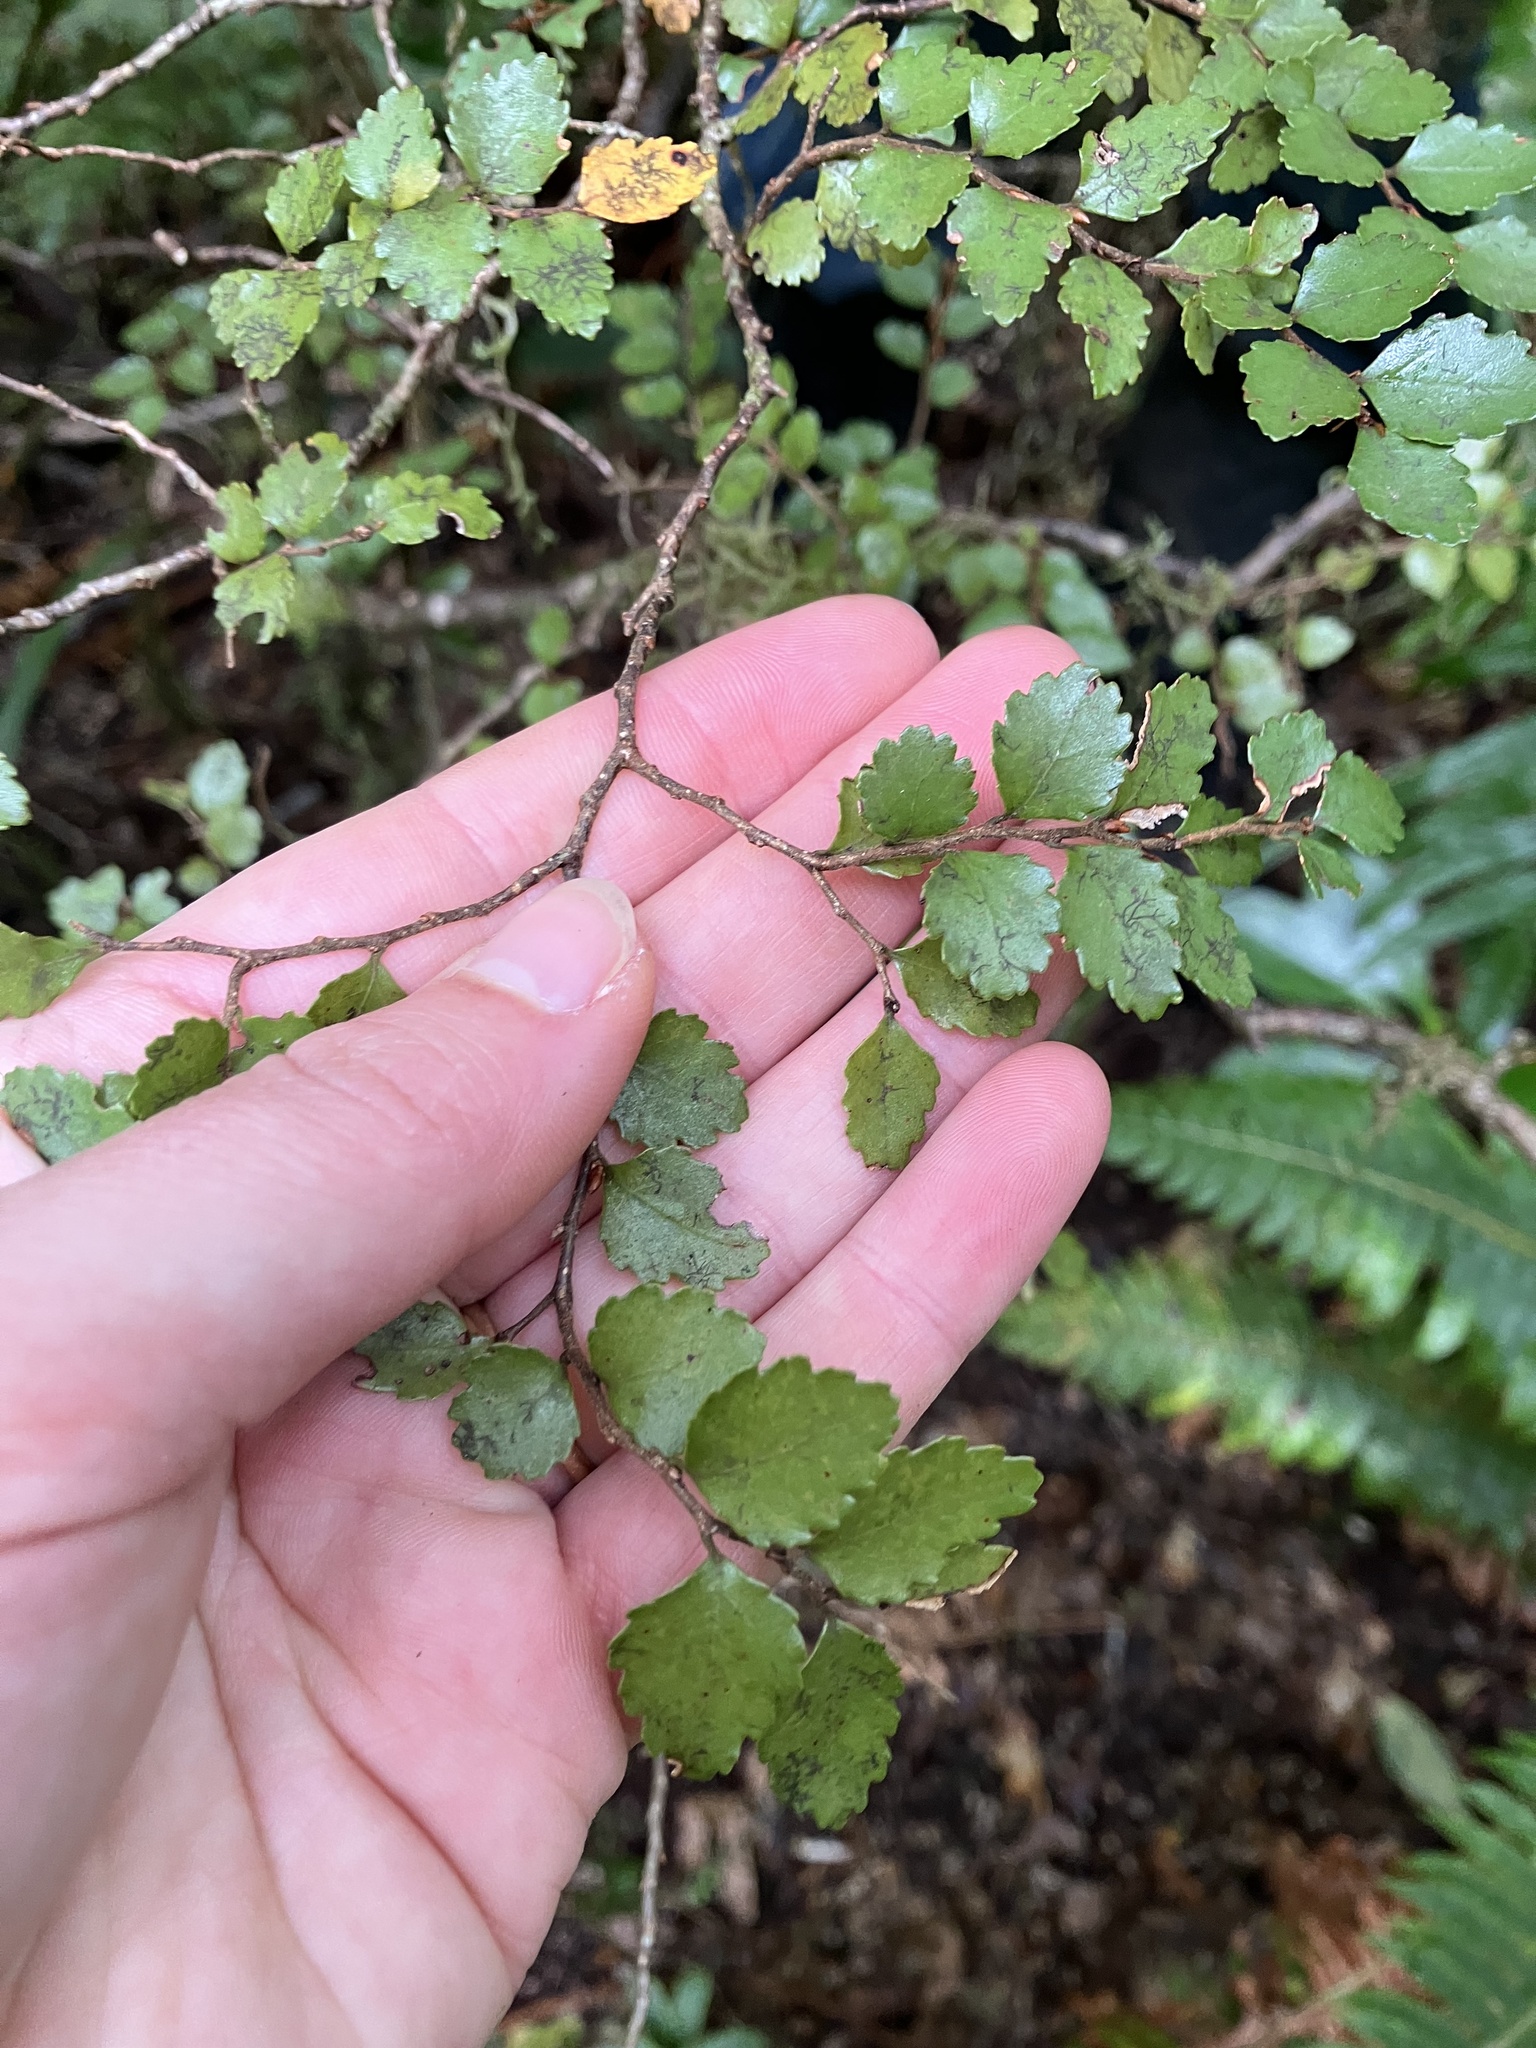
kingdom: Plantae
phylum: Tracheophyta
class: Magnoliopsida
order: Fagales
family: Nothofagaceae
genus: Nothofagus
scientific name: Nothofagus menziesii
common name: Silver beech
